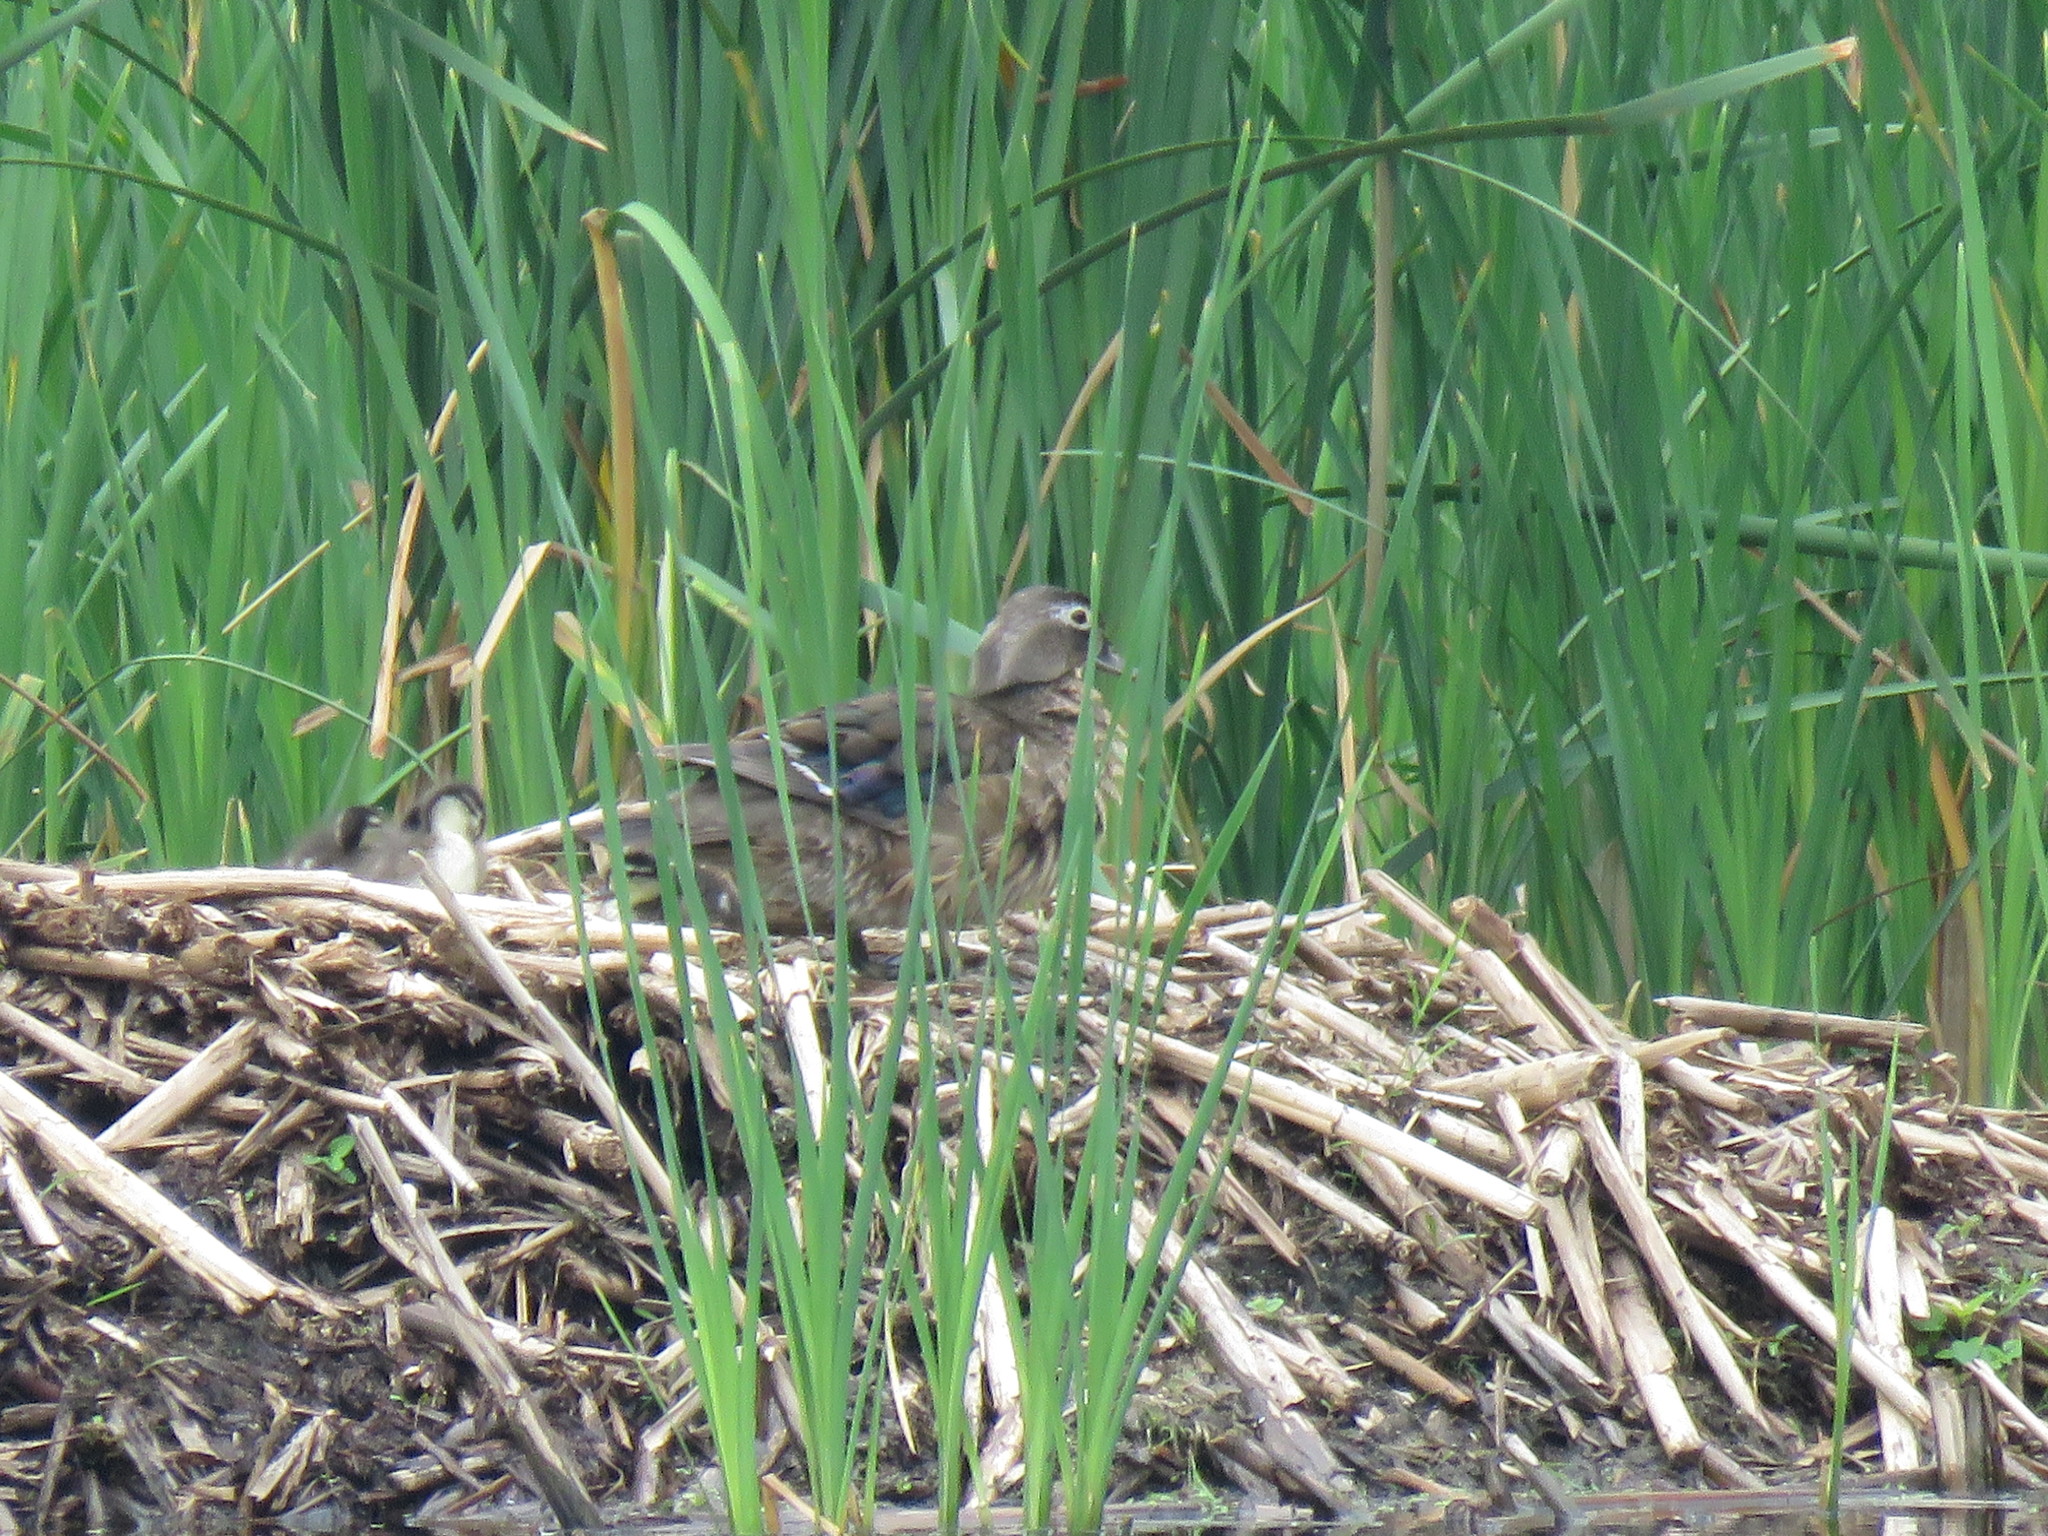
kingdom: Animalia
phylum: Chordata
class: Aves
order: Anseriformes
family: Anatidae
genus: Aix
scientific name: Aix sponsa
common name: Wood duck
